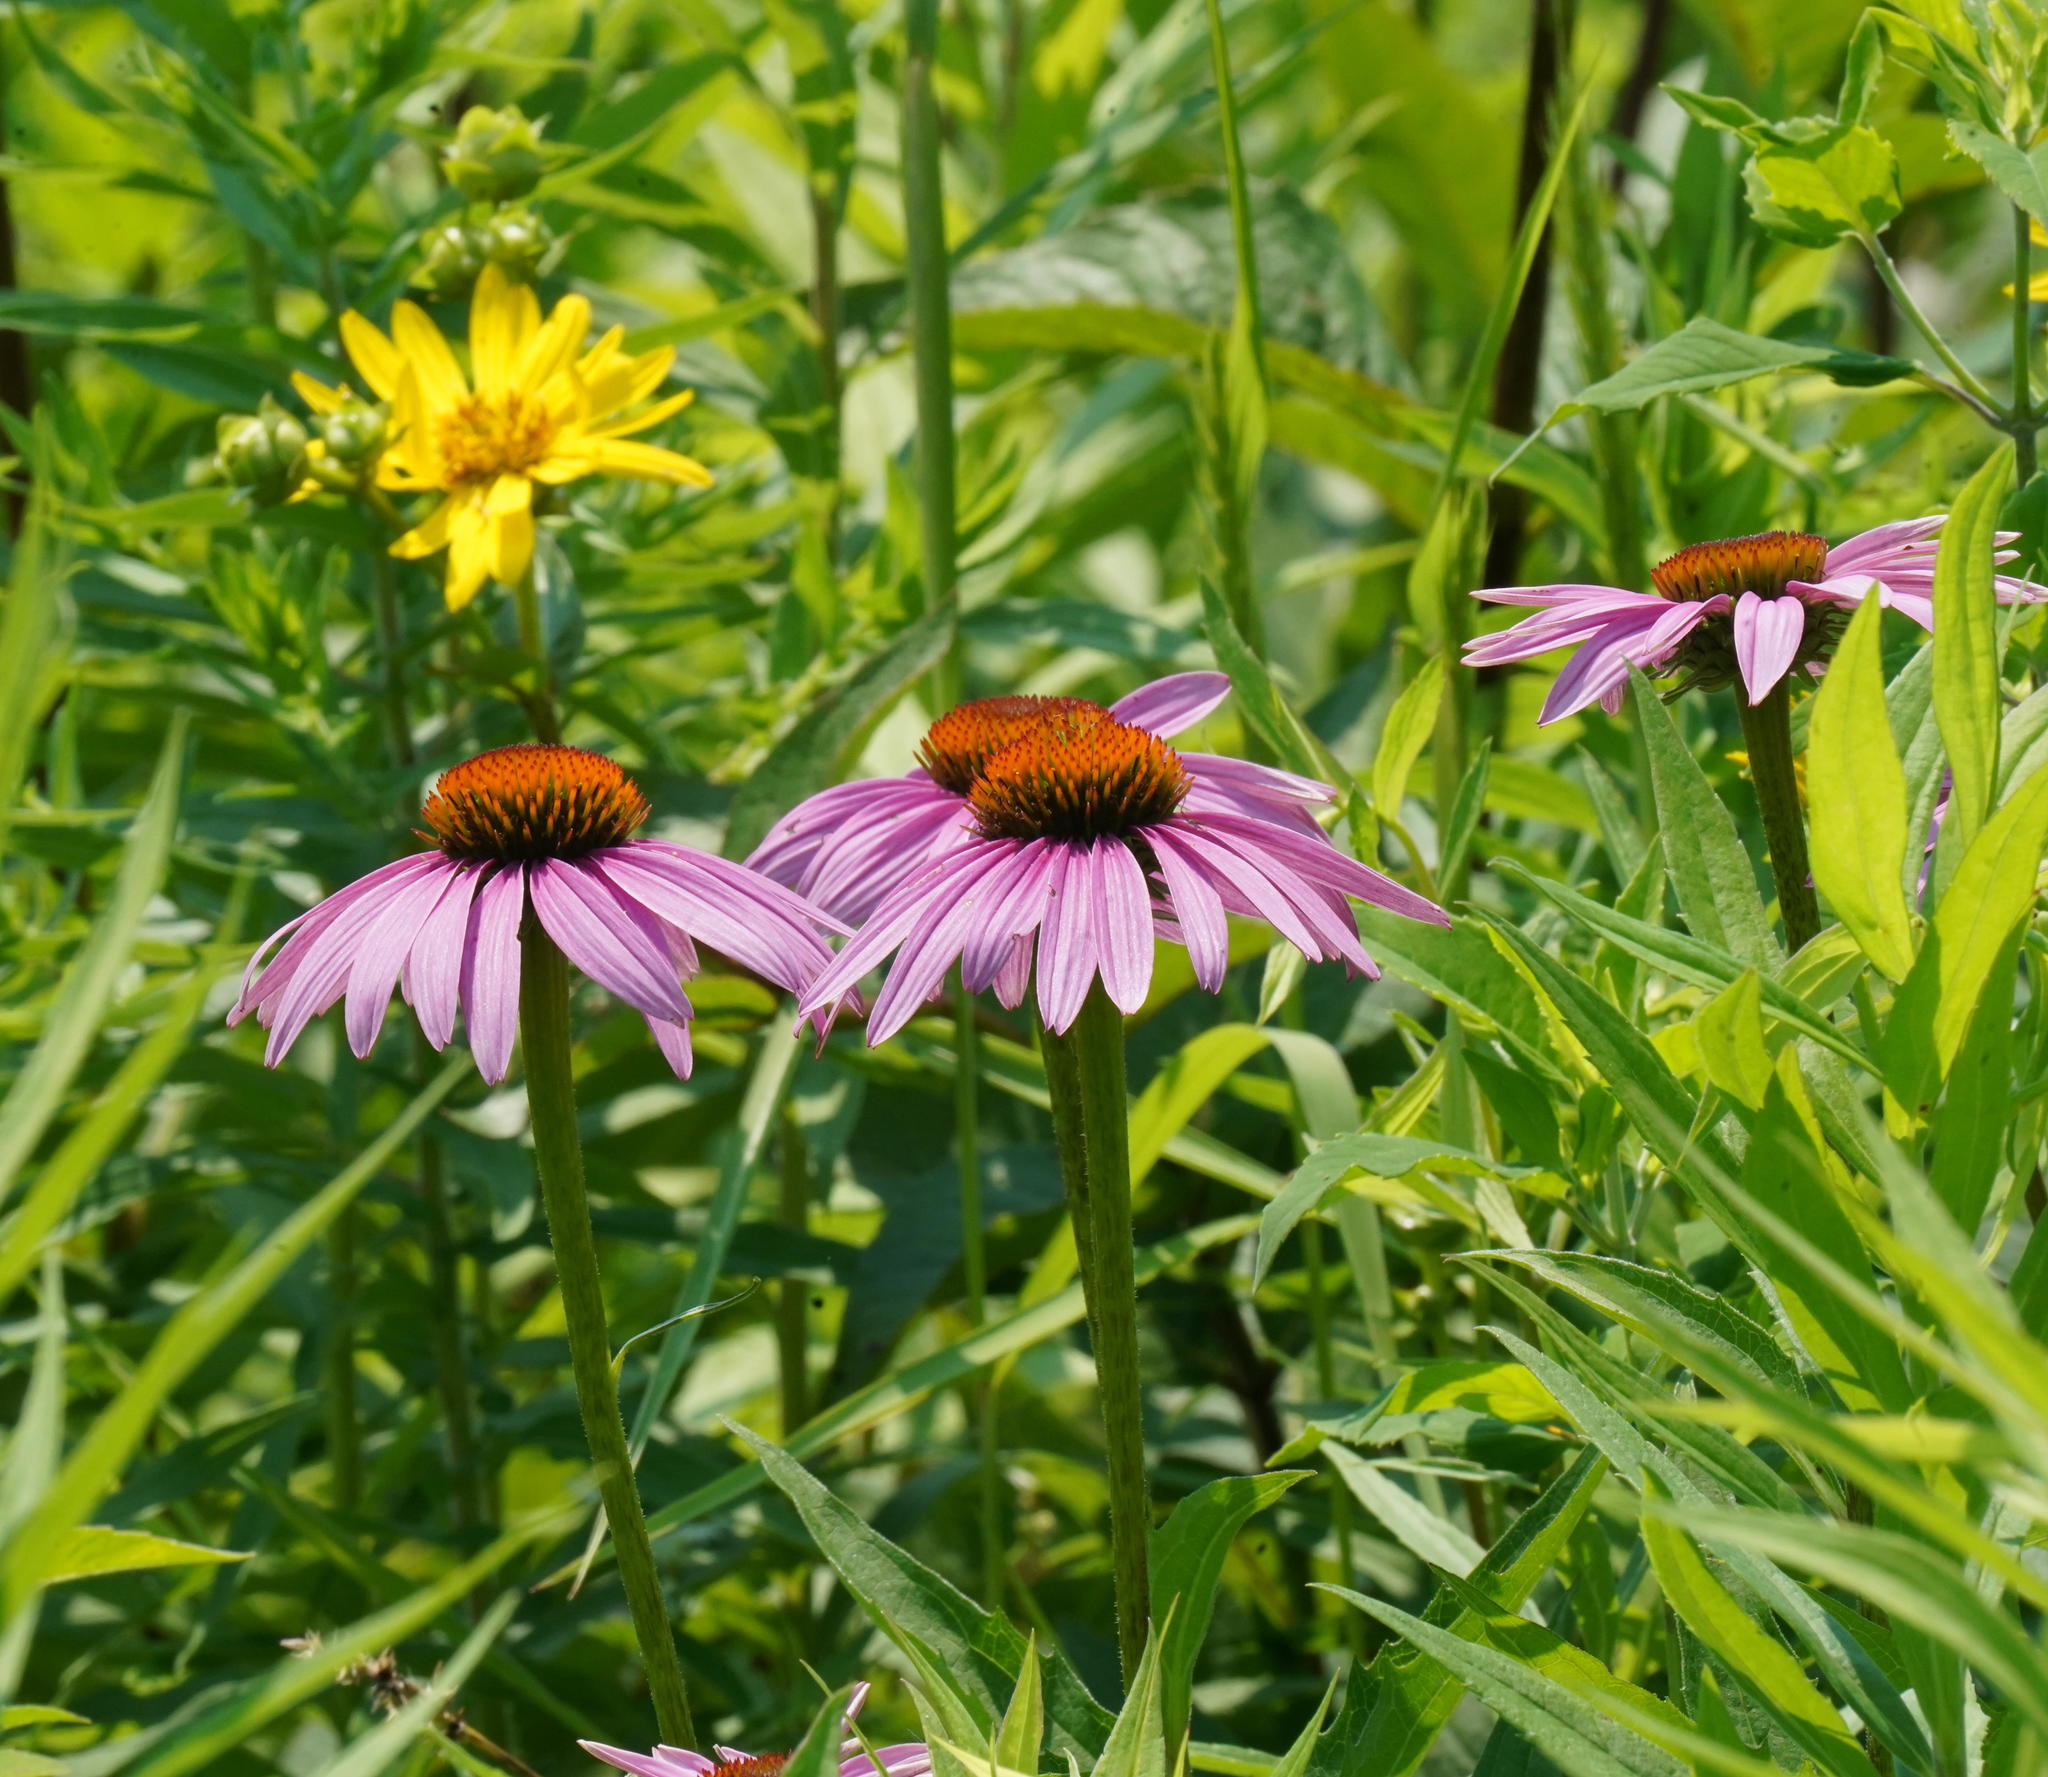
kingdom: Plantae
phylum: Tracheophyta
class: Magnoliopsida
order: Asterales
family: Asteraceae
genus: Echinacea
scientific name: Echinacea purpurea
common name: Broad-leaved purple coneflower
